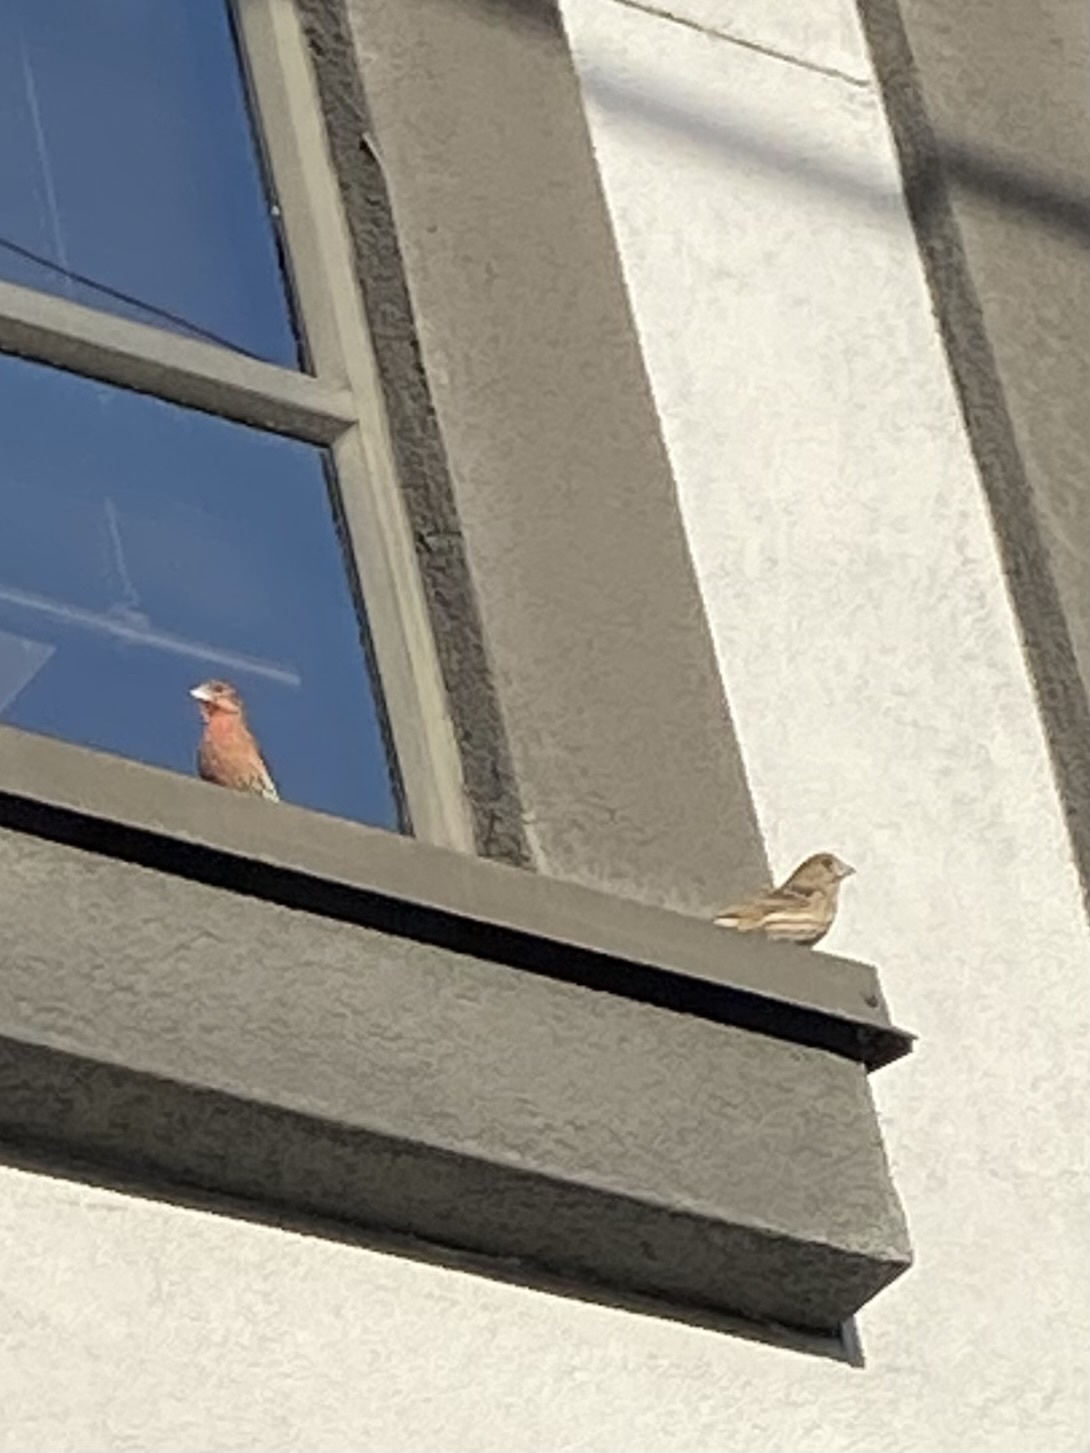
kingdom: Animalia
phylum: Chordata
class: Aves
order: Passeriformes
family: Fringillidae
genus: Haemorhous
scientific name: Haemorhous mexicanus
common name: House finch
